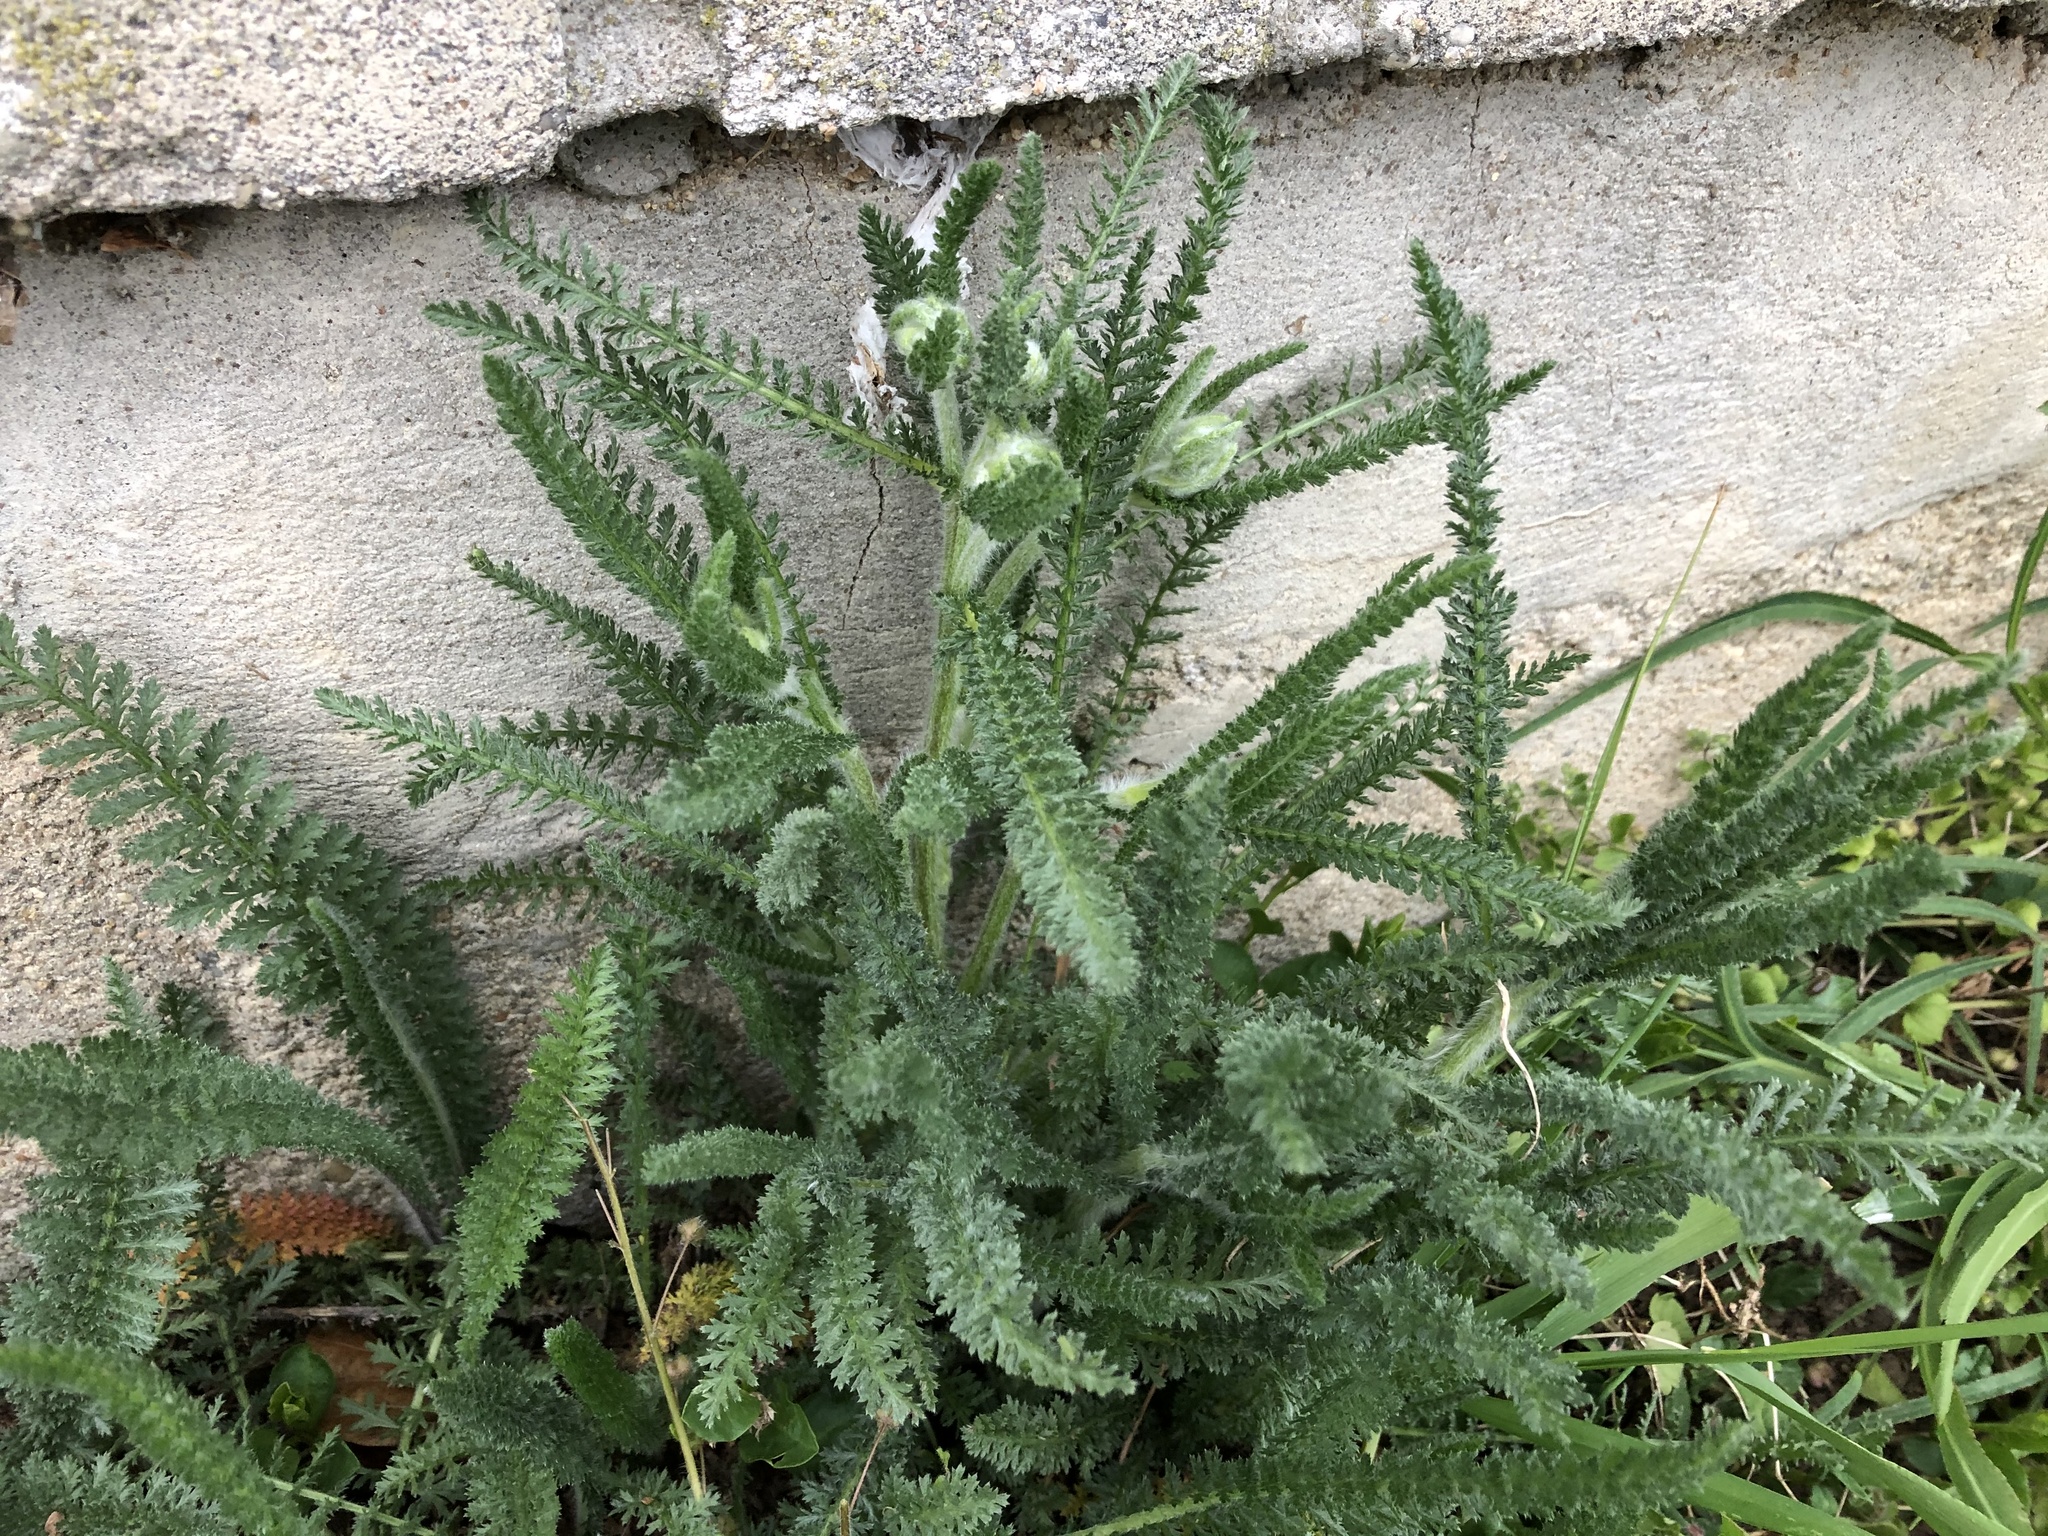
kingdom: Plantae
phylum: Tracheophyta
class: Magnoliopsida
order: Asterales
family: Asteraceae
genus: Achillea
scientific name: Achillea millefolium
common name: Yarrow
